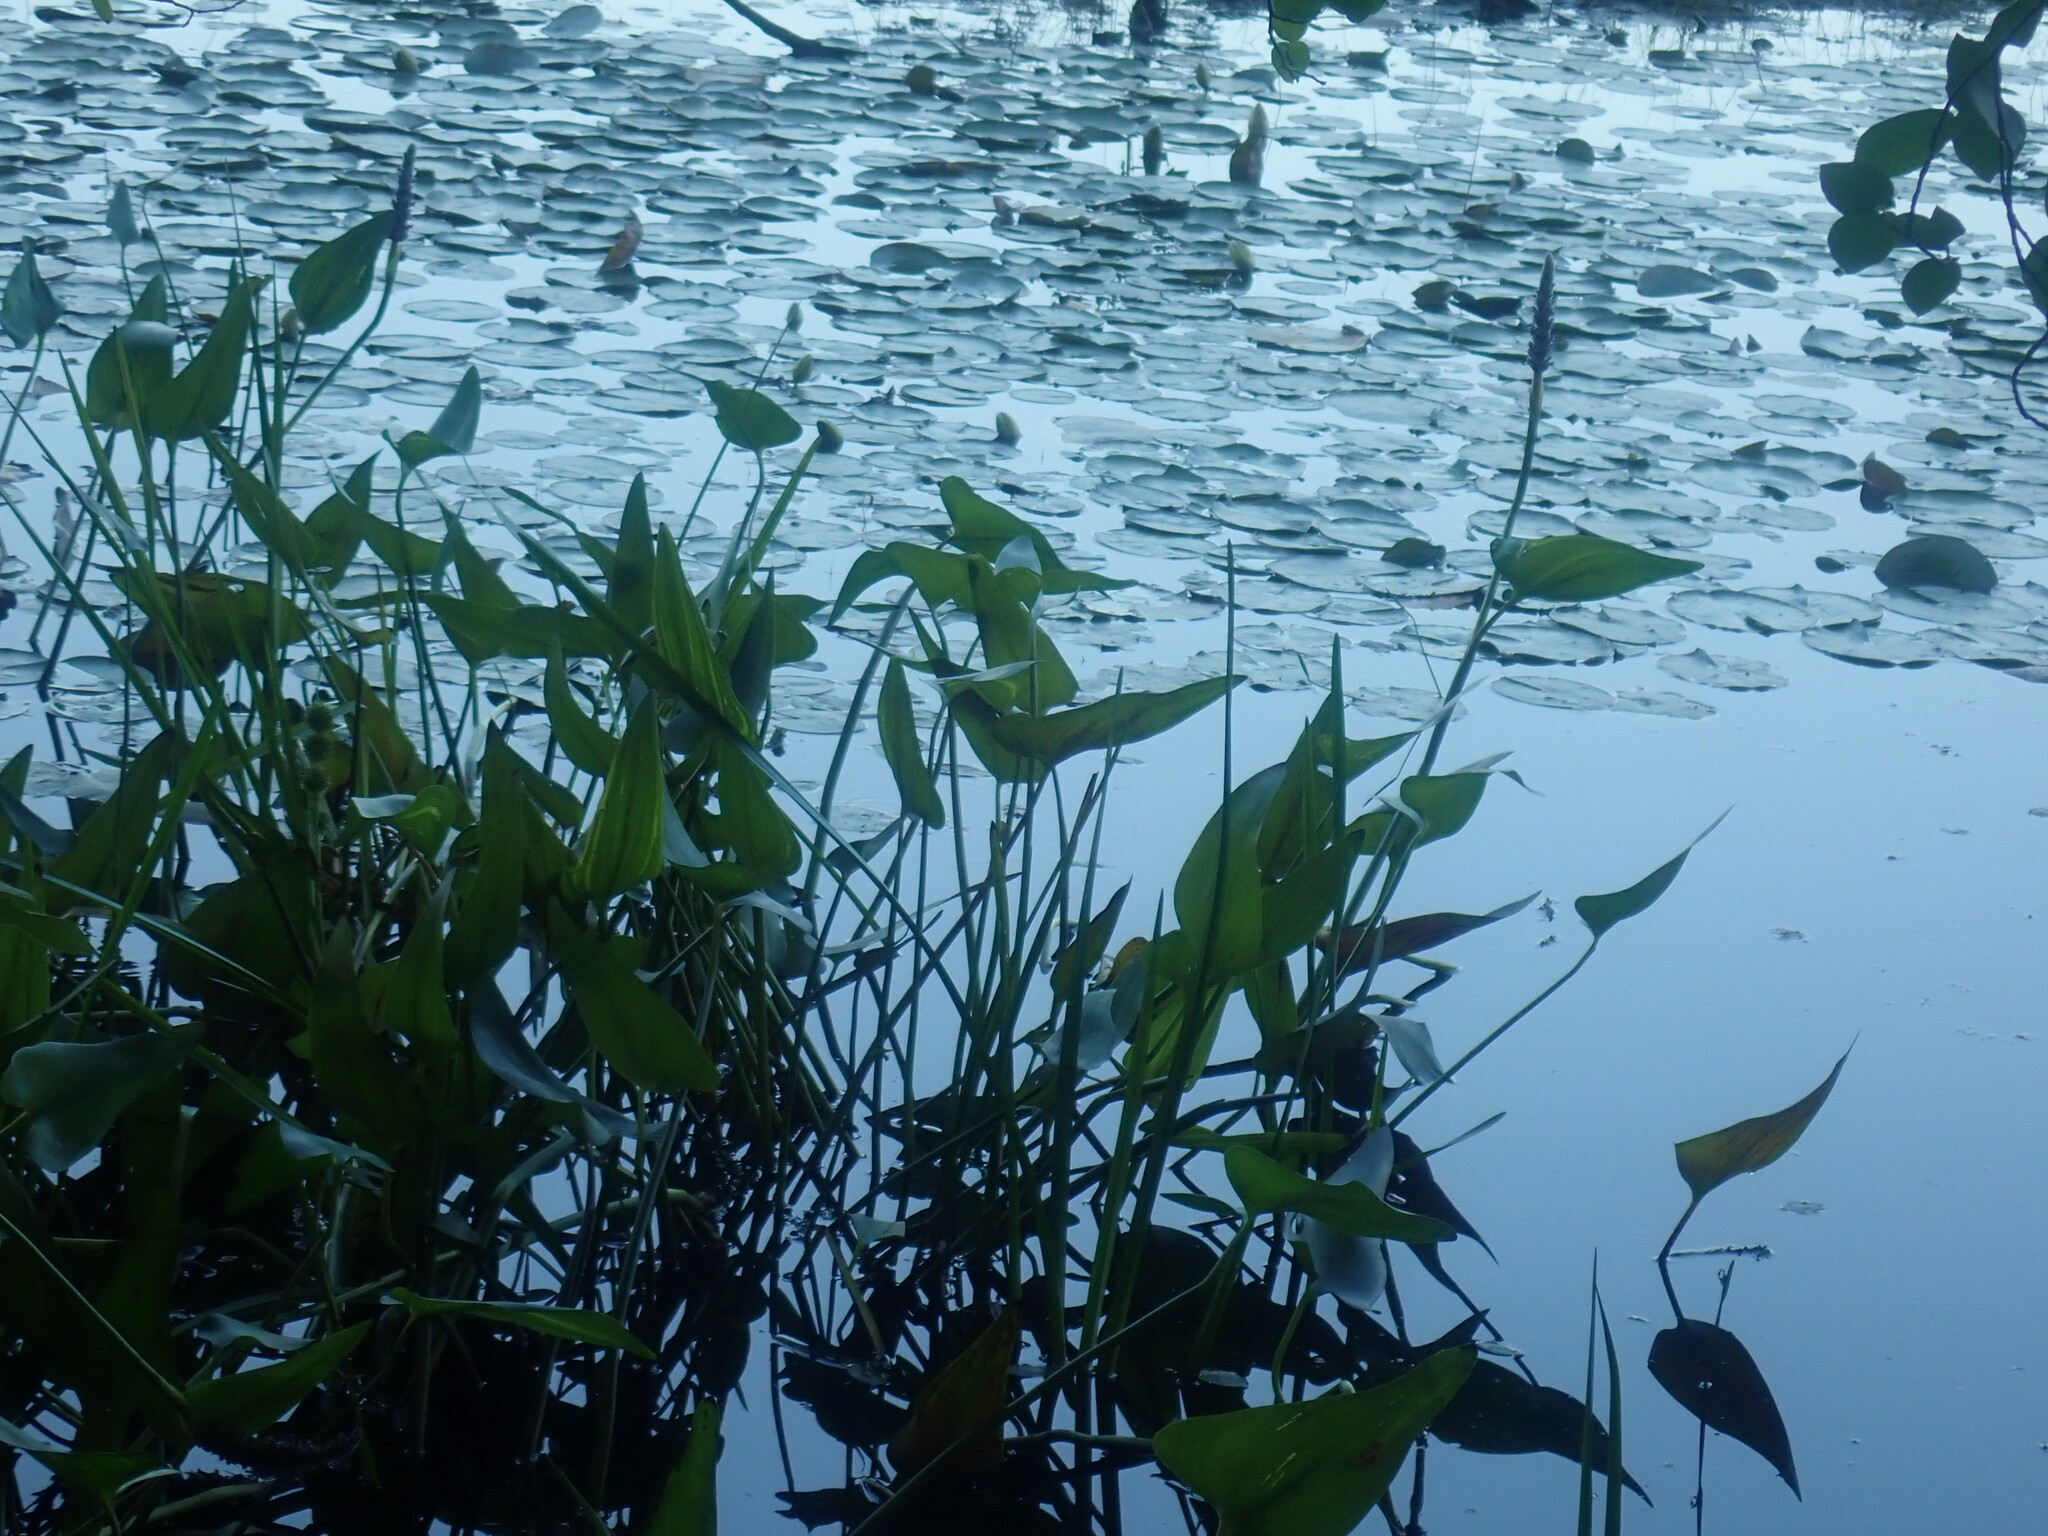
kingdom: Plantae
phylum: Tracheophyta
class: Liliopsida
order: Commelinales
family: Pontederiaceae
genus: Pontederia
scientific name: Pontederia cordata
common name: Pickerelweed
